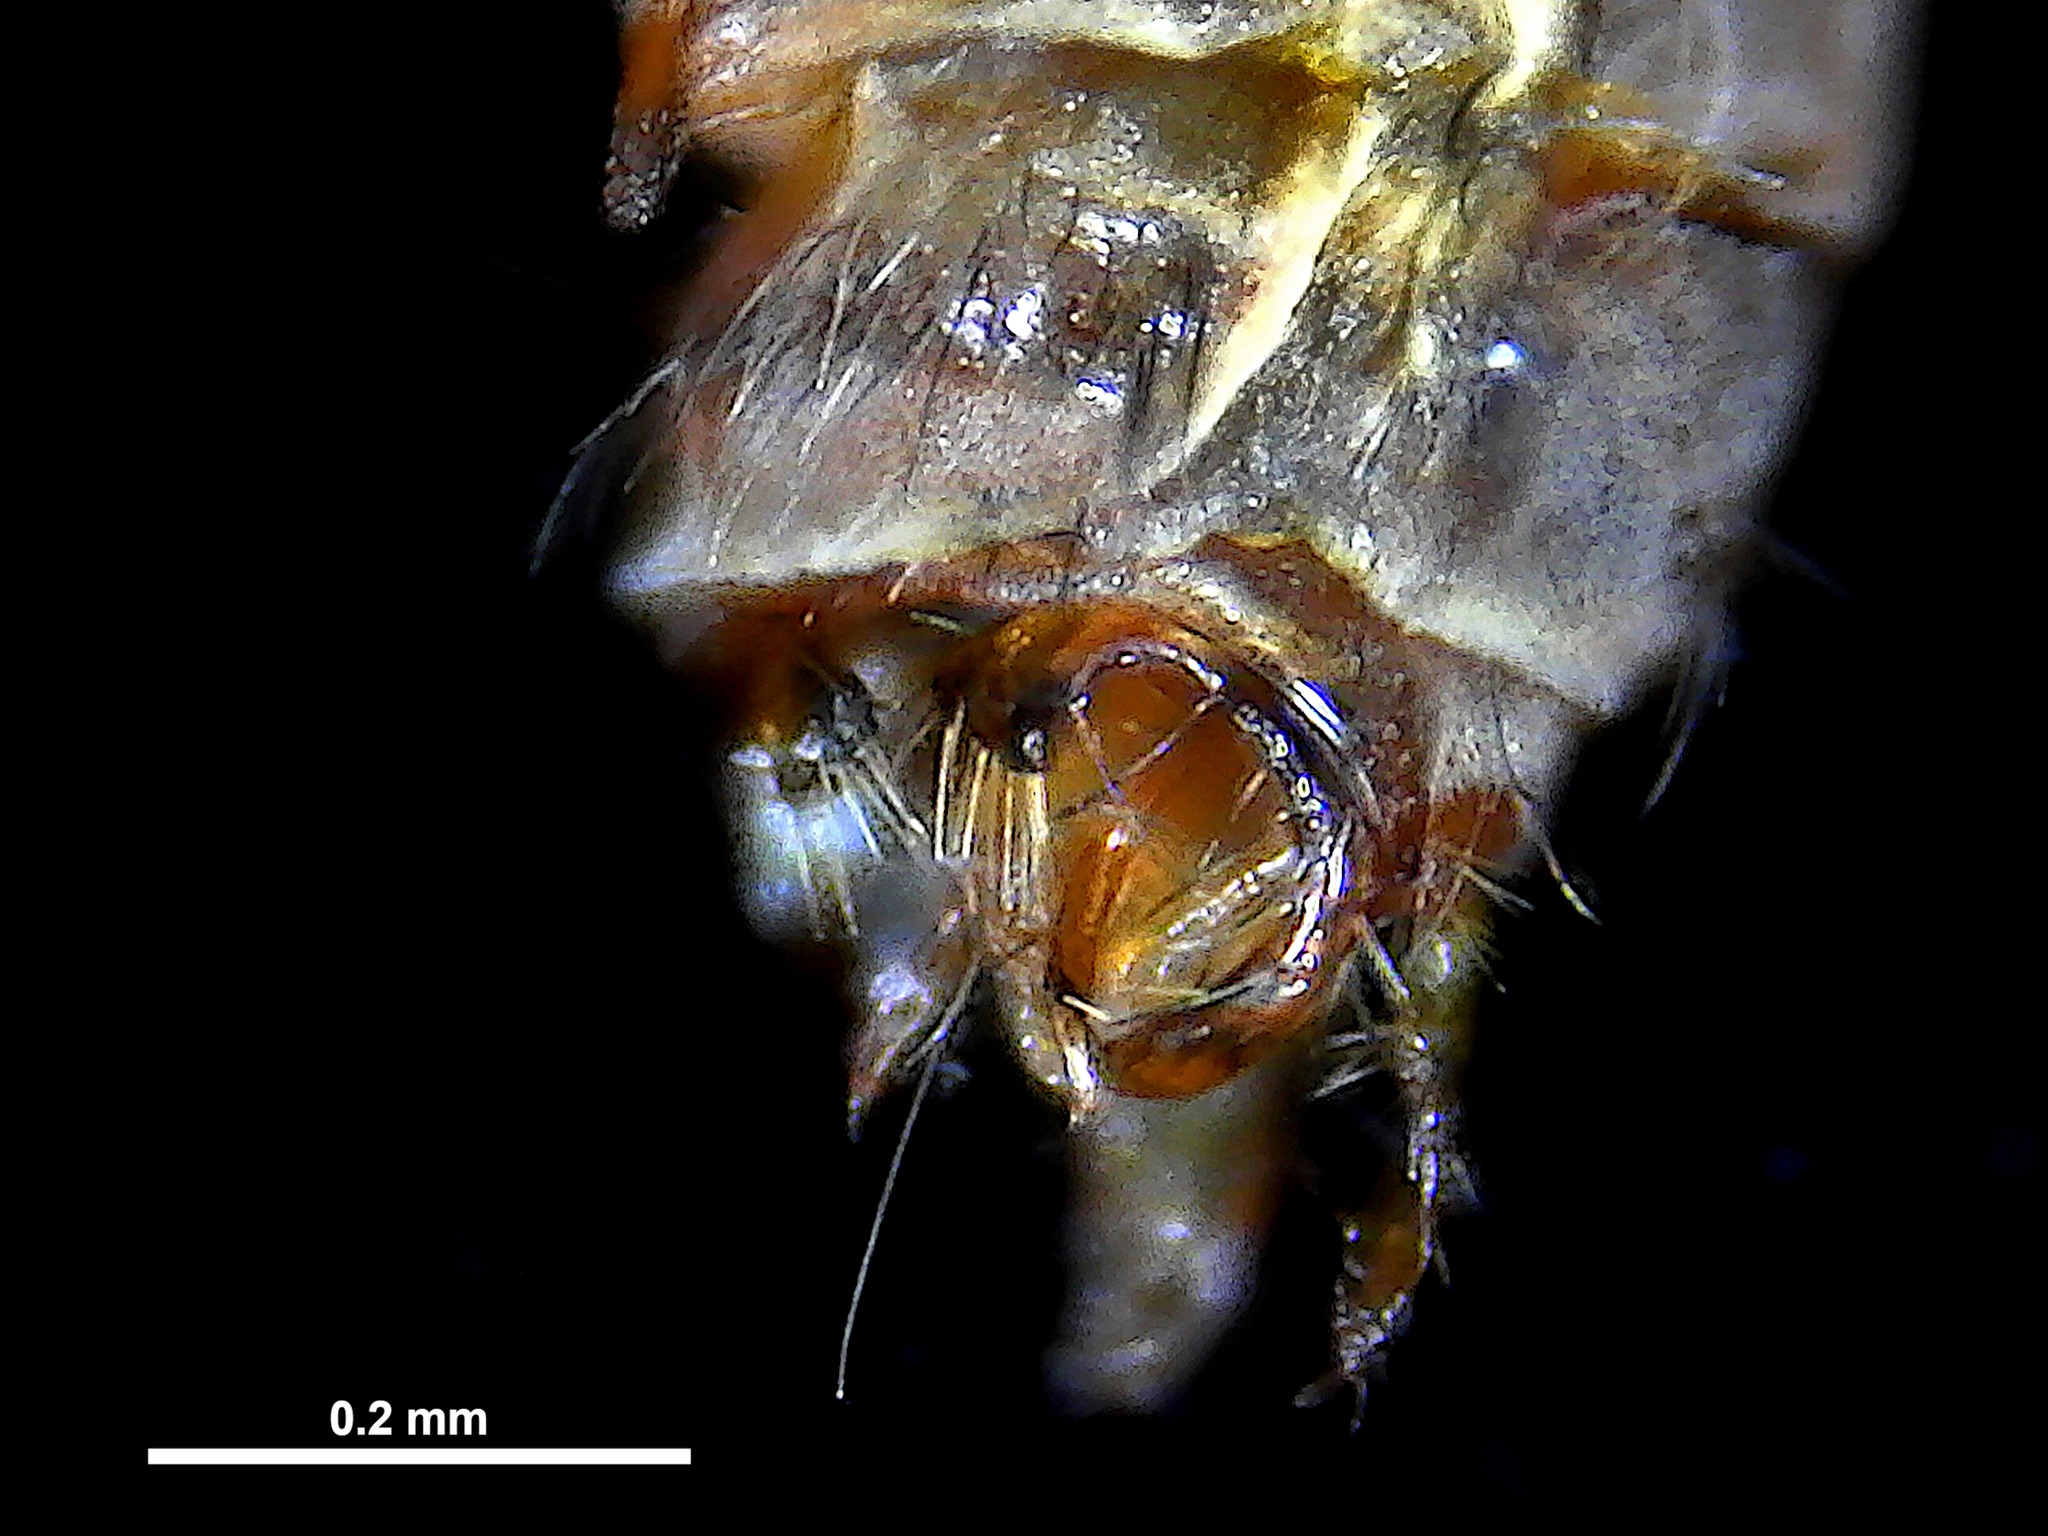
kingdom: Animalia
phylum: Arthropoda
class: Insecta
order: Trichoptera
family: Conoesucidae
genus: Pycnocentrodes
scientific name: Pycnocentrodes aureolus
